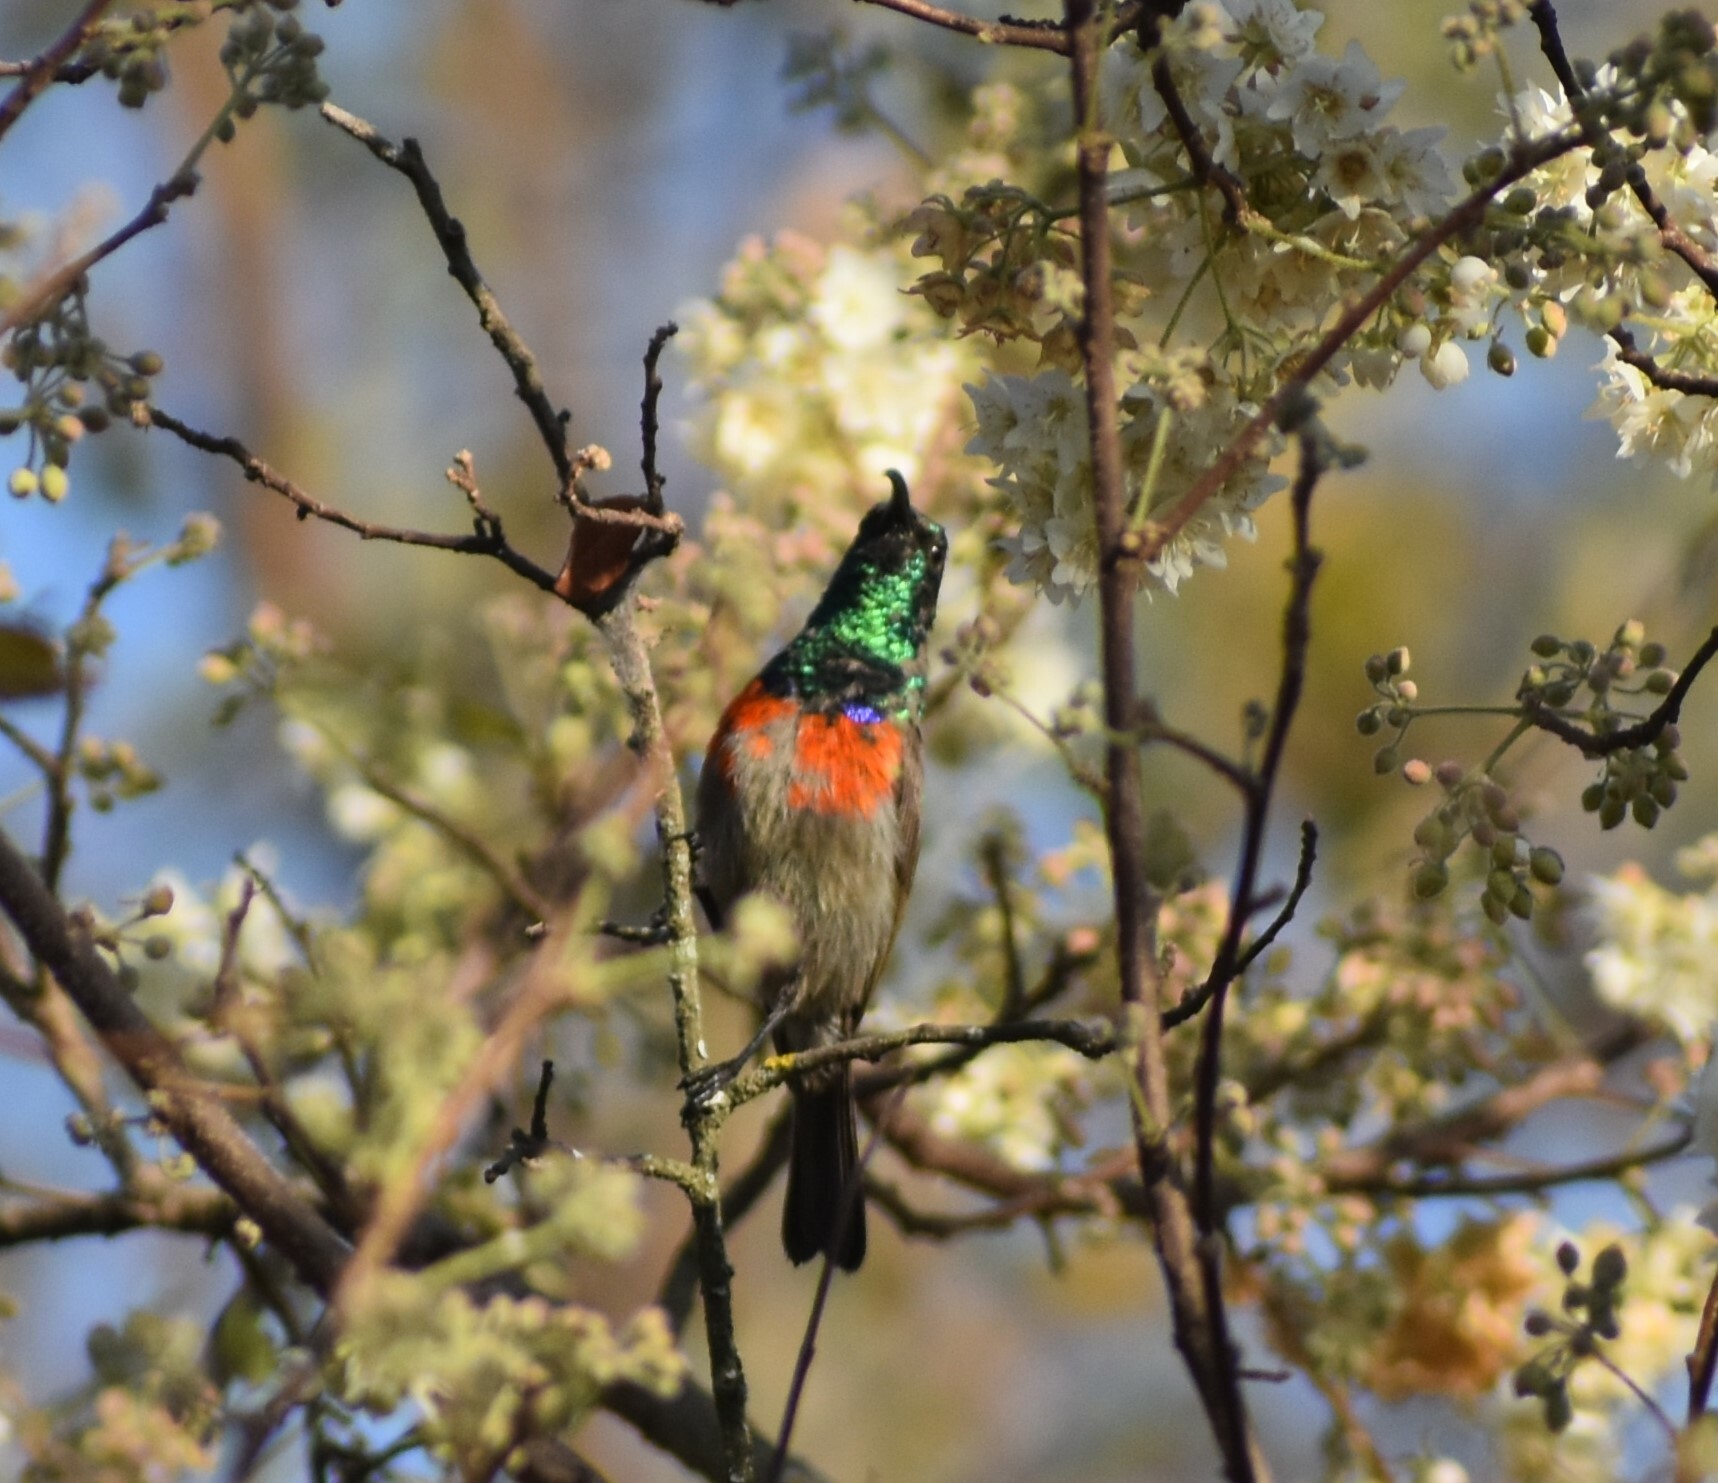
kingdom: Animalia
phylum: Chordata
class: Aves
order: Passeriformes
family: Nectariniidae
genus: Cinnyris
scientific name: Cinnyris afer
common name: Greater double-collared sunbird
